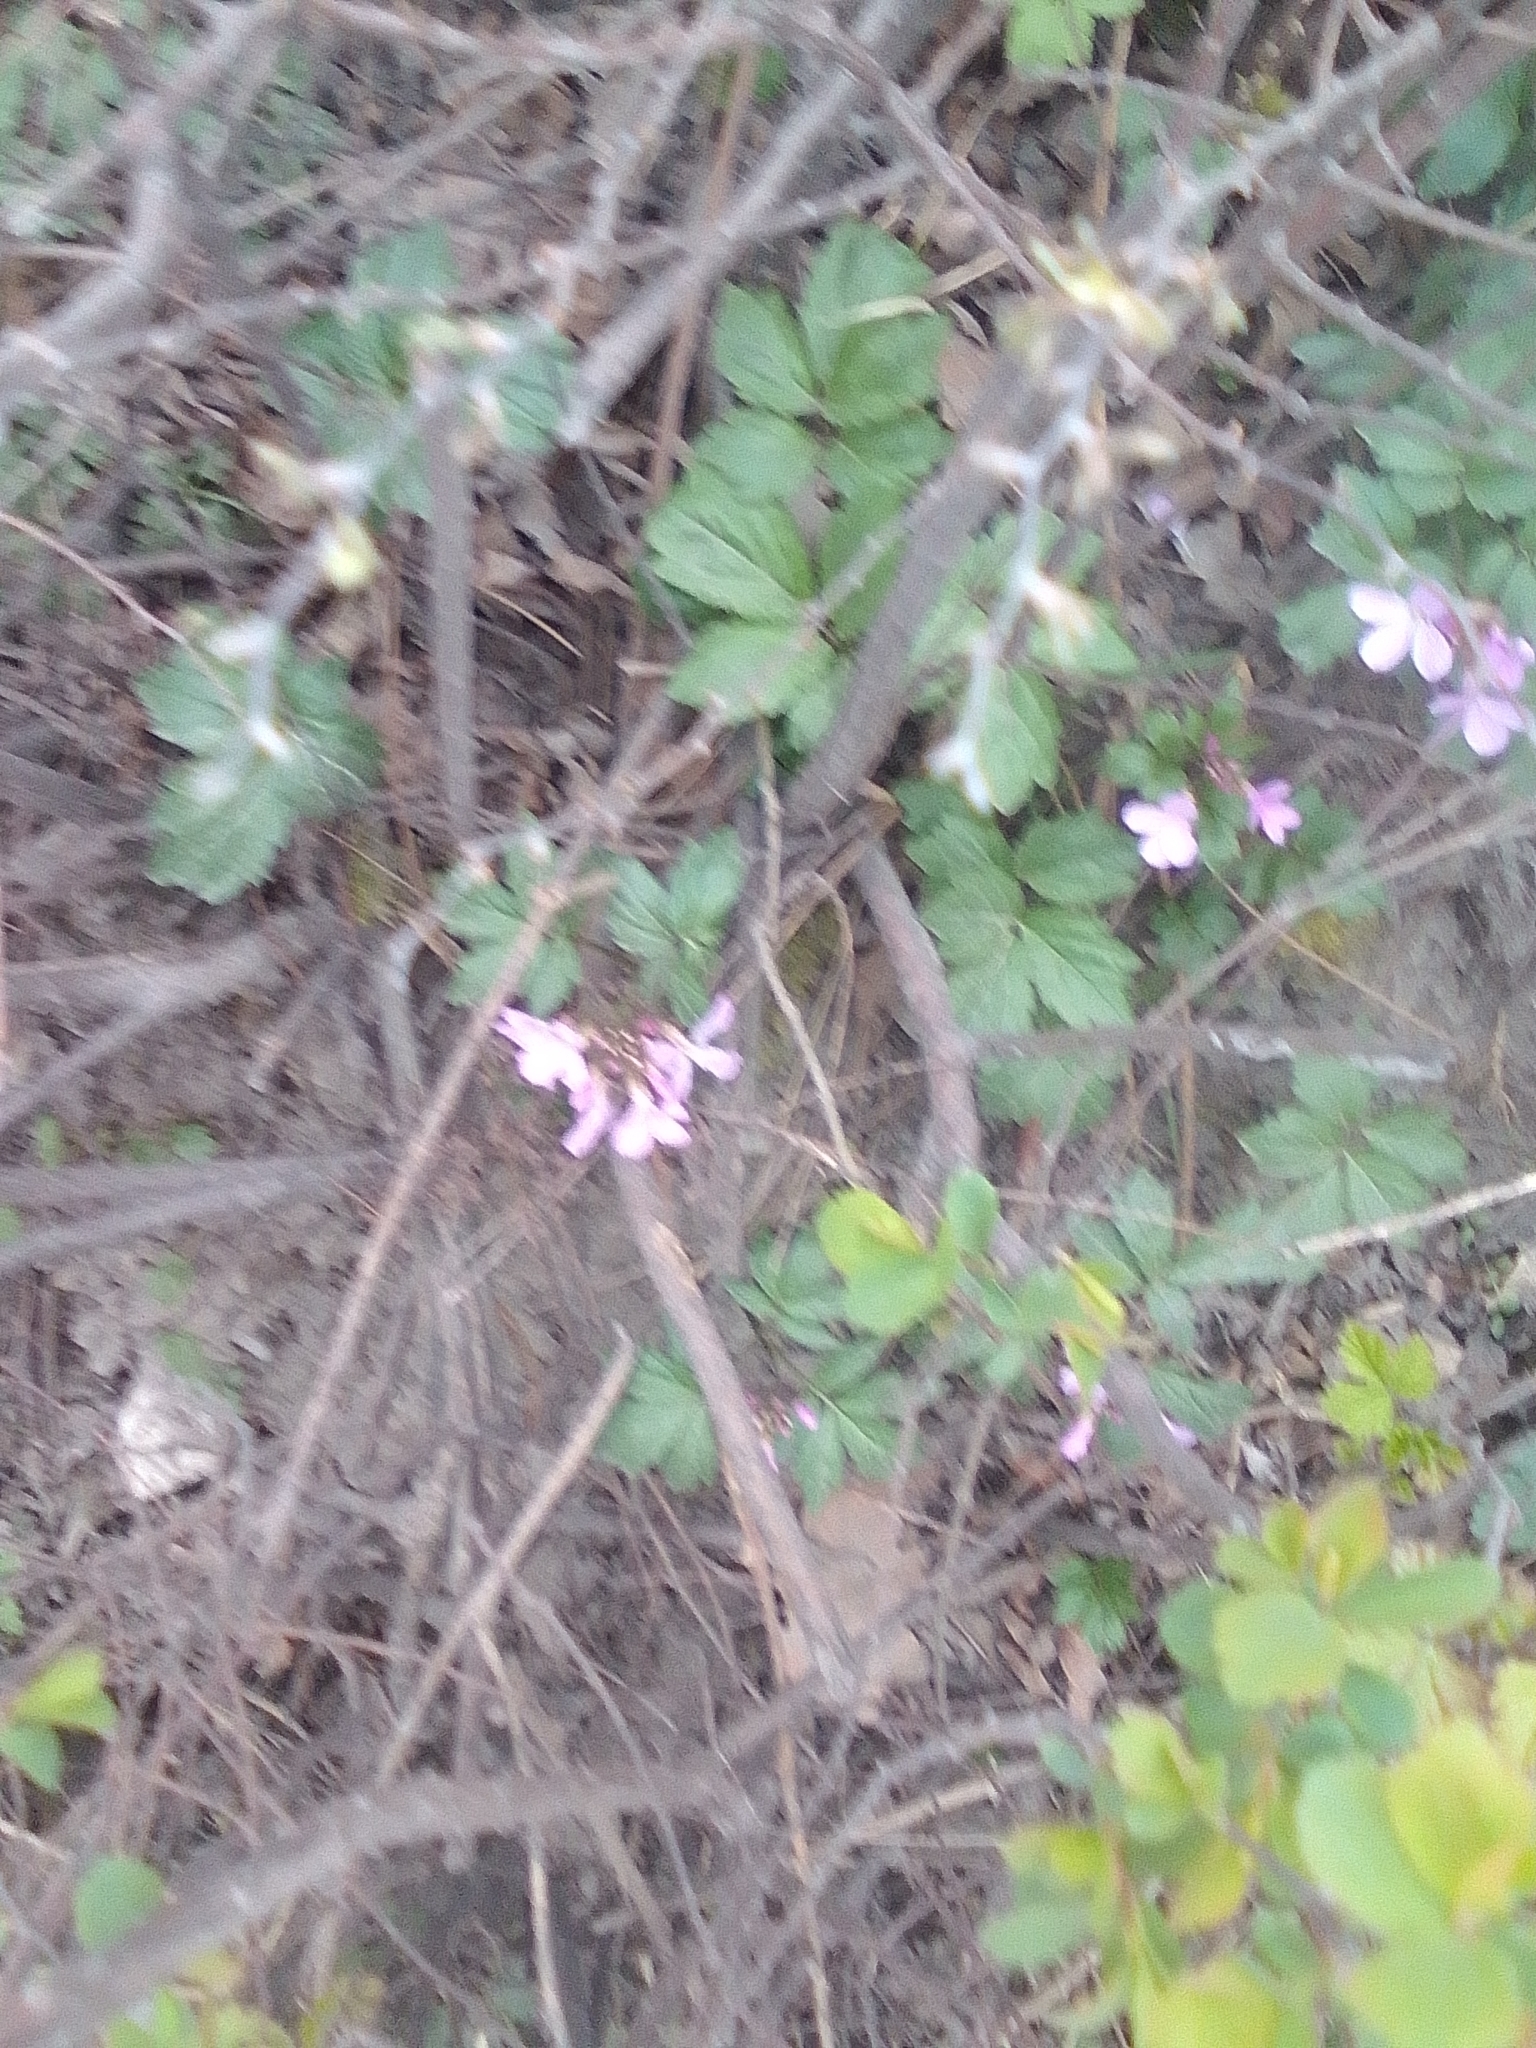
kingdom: Plantae
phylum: Tracheophyta
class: Magnoliopsida
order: Brassicales
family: Brassicaceae
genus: Cardamine
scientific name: Cardamine quinquefolia
